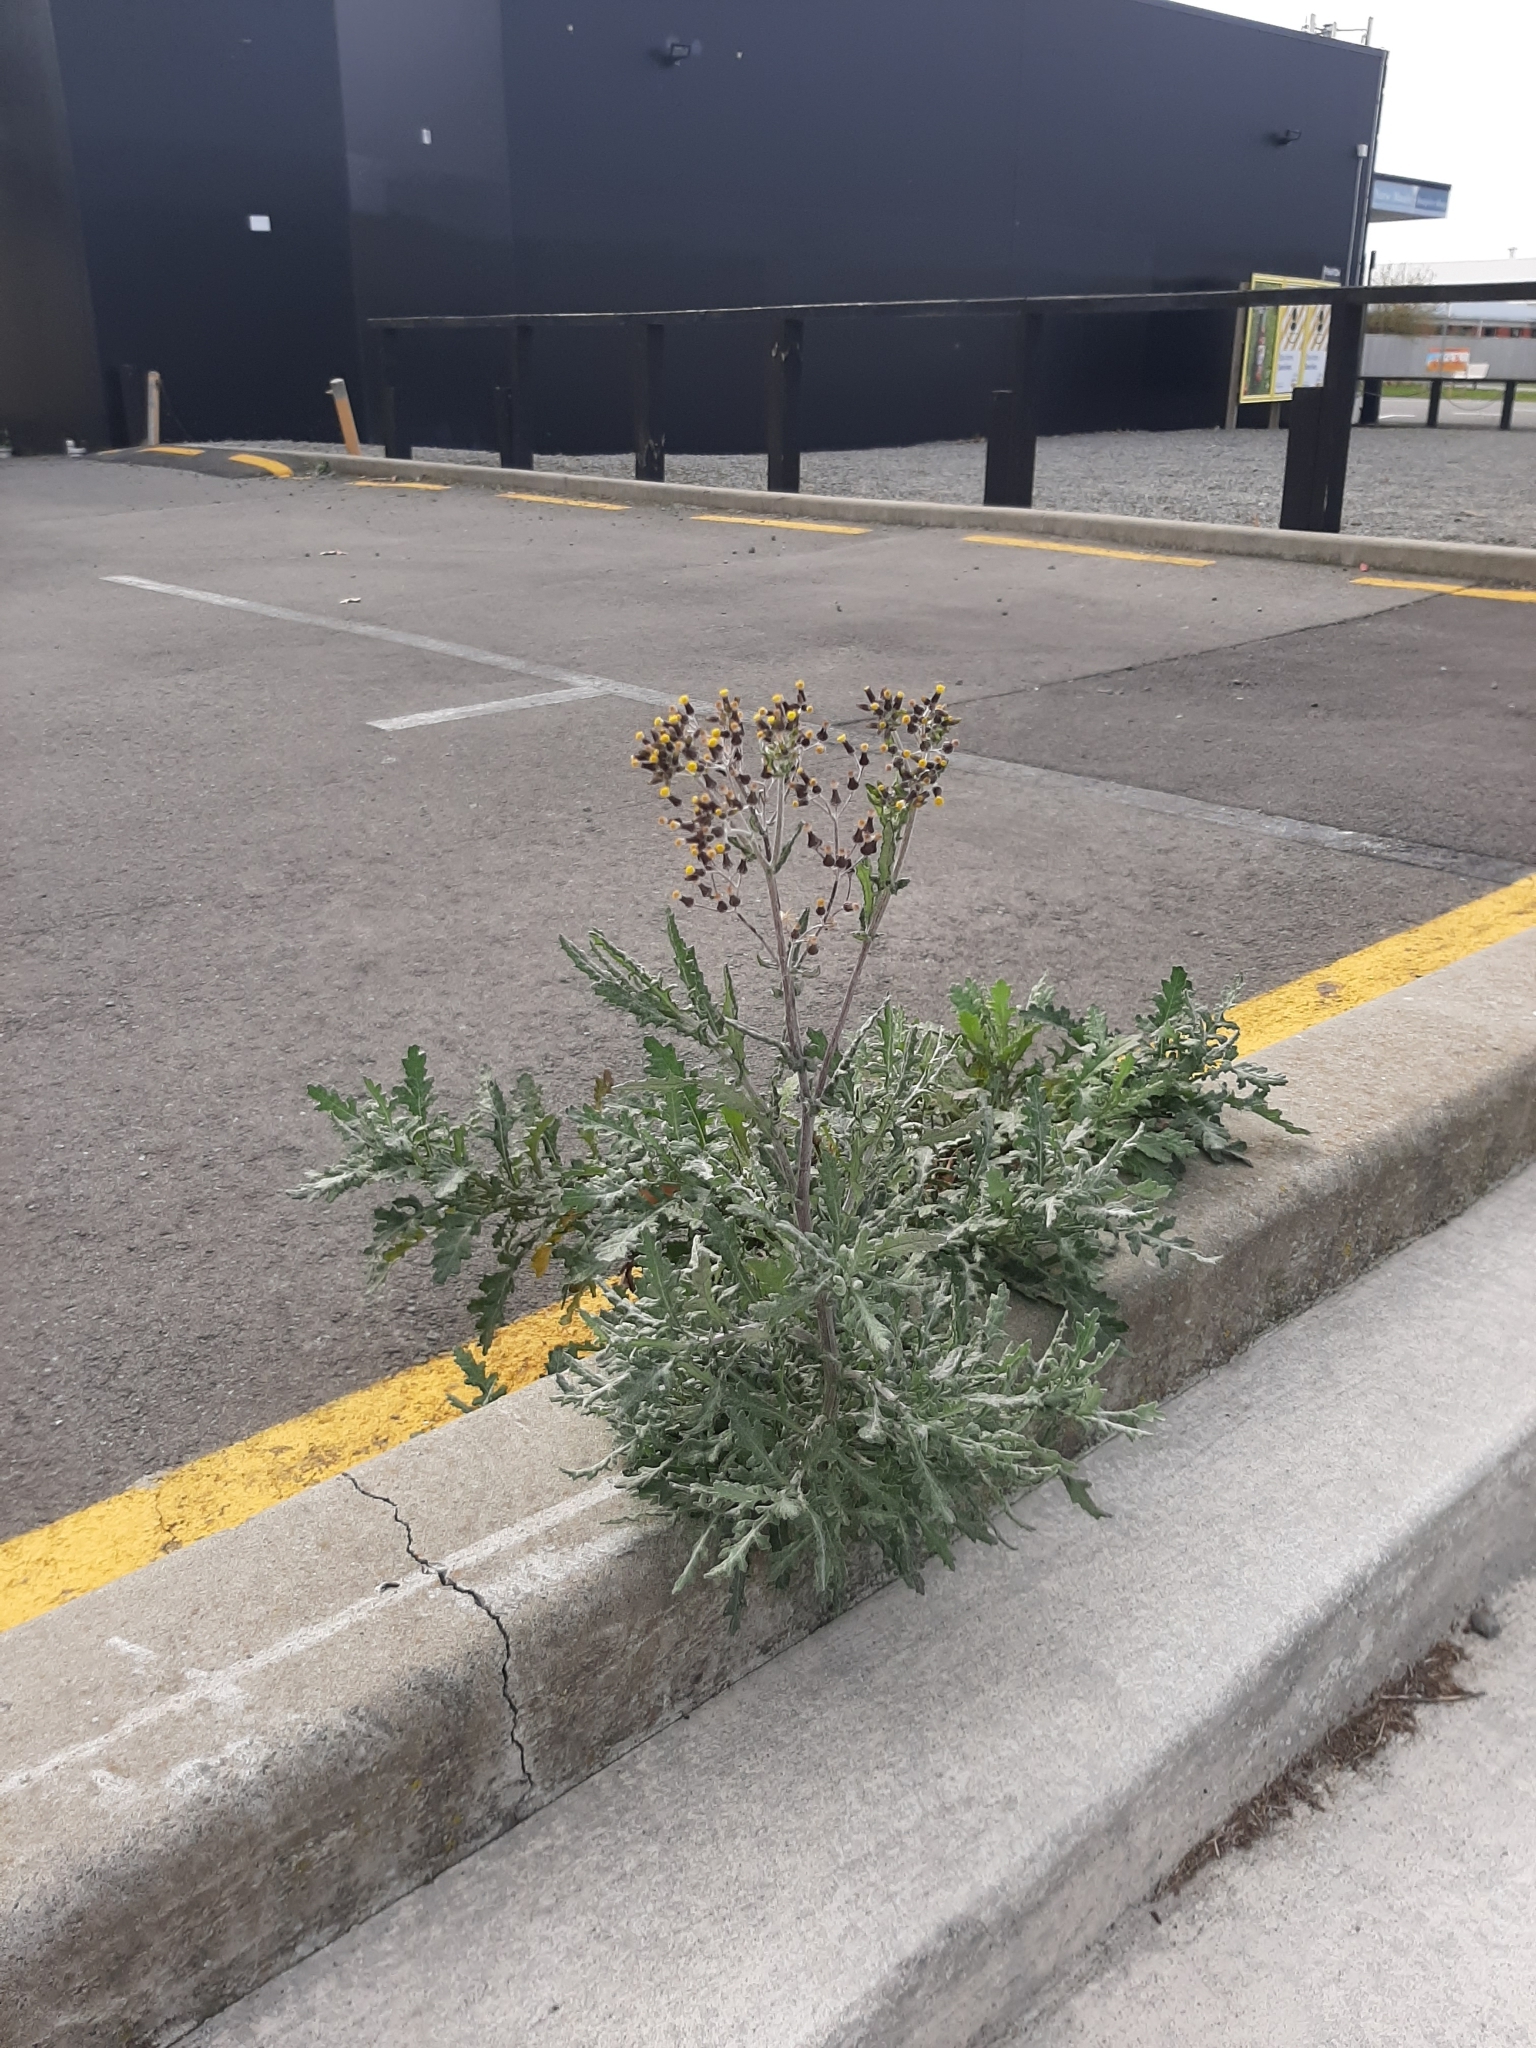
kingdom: Plantae
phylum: Tracheophyta
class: Magnoliopsida
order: Asterales
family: Asteraceae
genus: Senecio
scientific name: Senecio glomeratus
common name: Cutleaf burnweed
